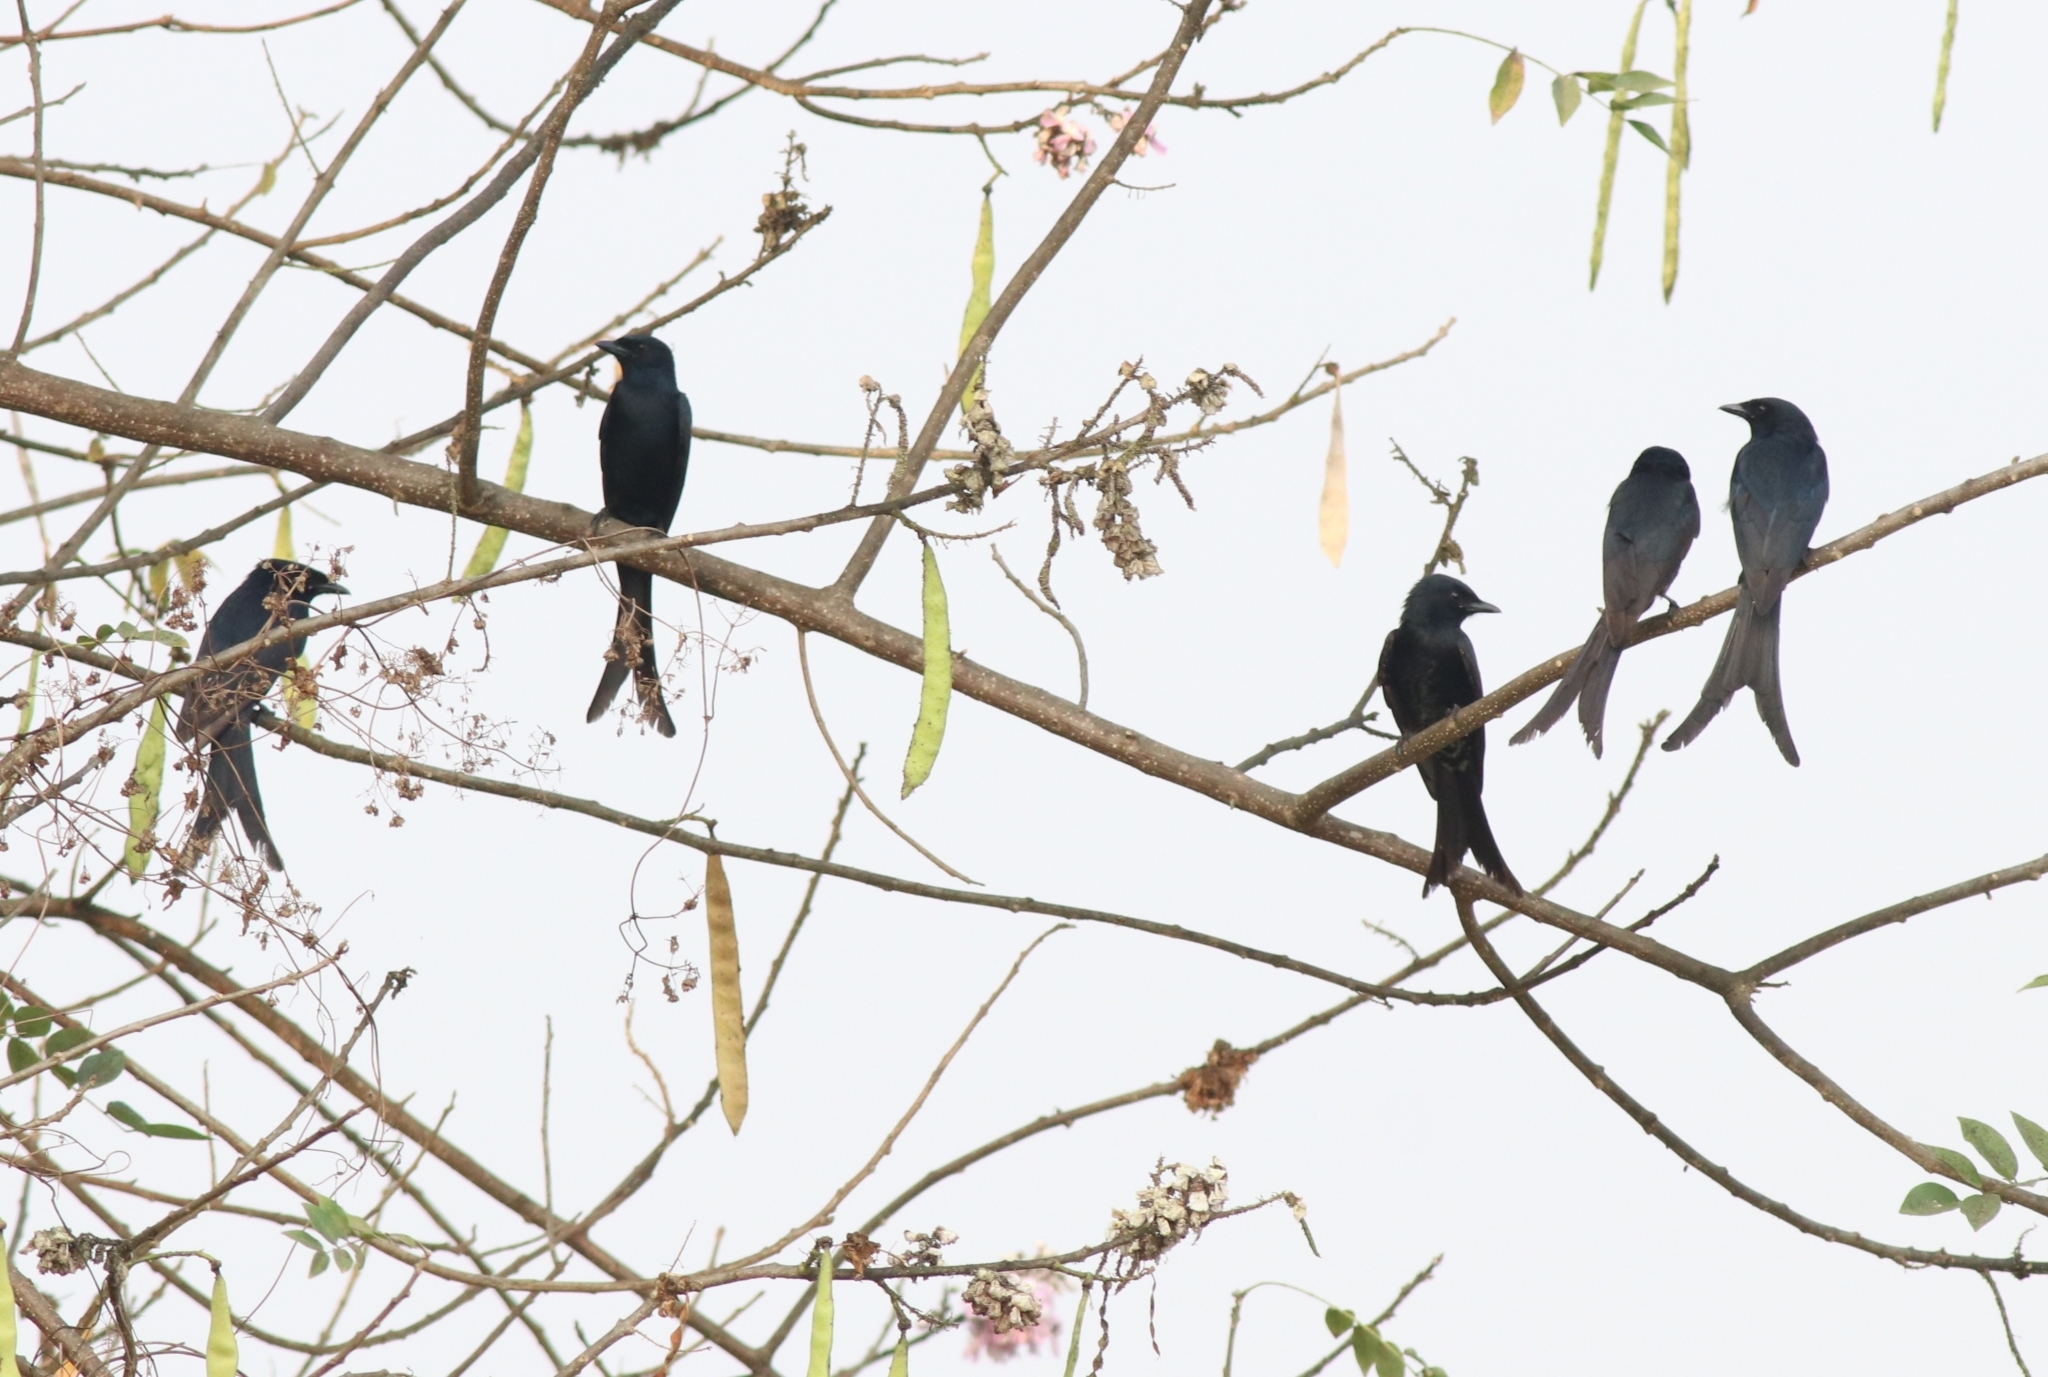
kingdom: Animalia
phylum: Chordata
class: Aves
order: Passeriformes
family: Dicruridae
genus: Dicrurus
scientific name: Dicrurus macrocercus
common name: Black drongo
